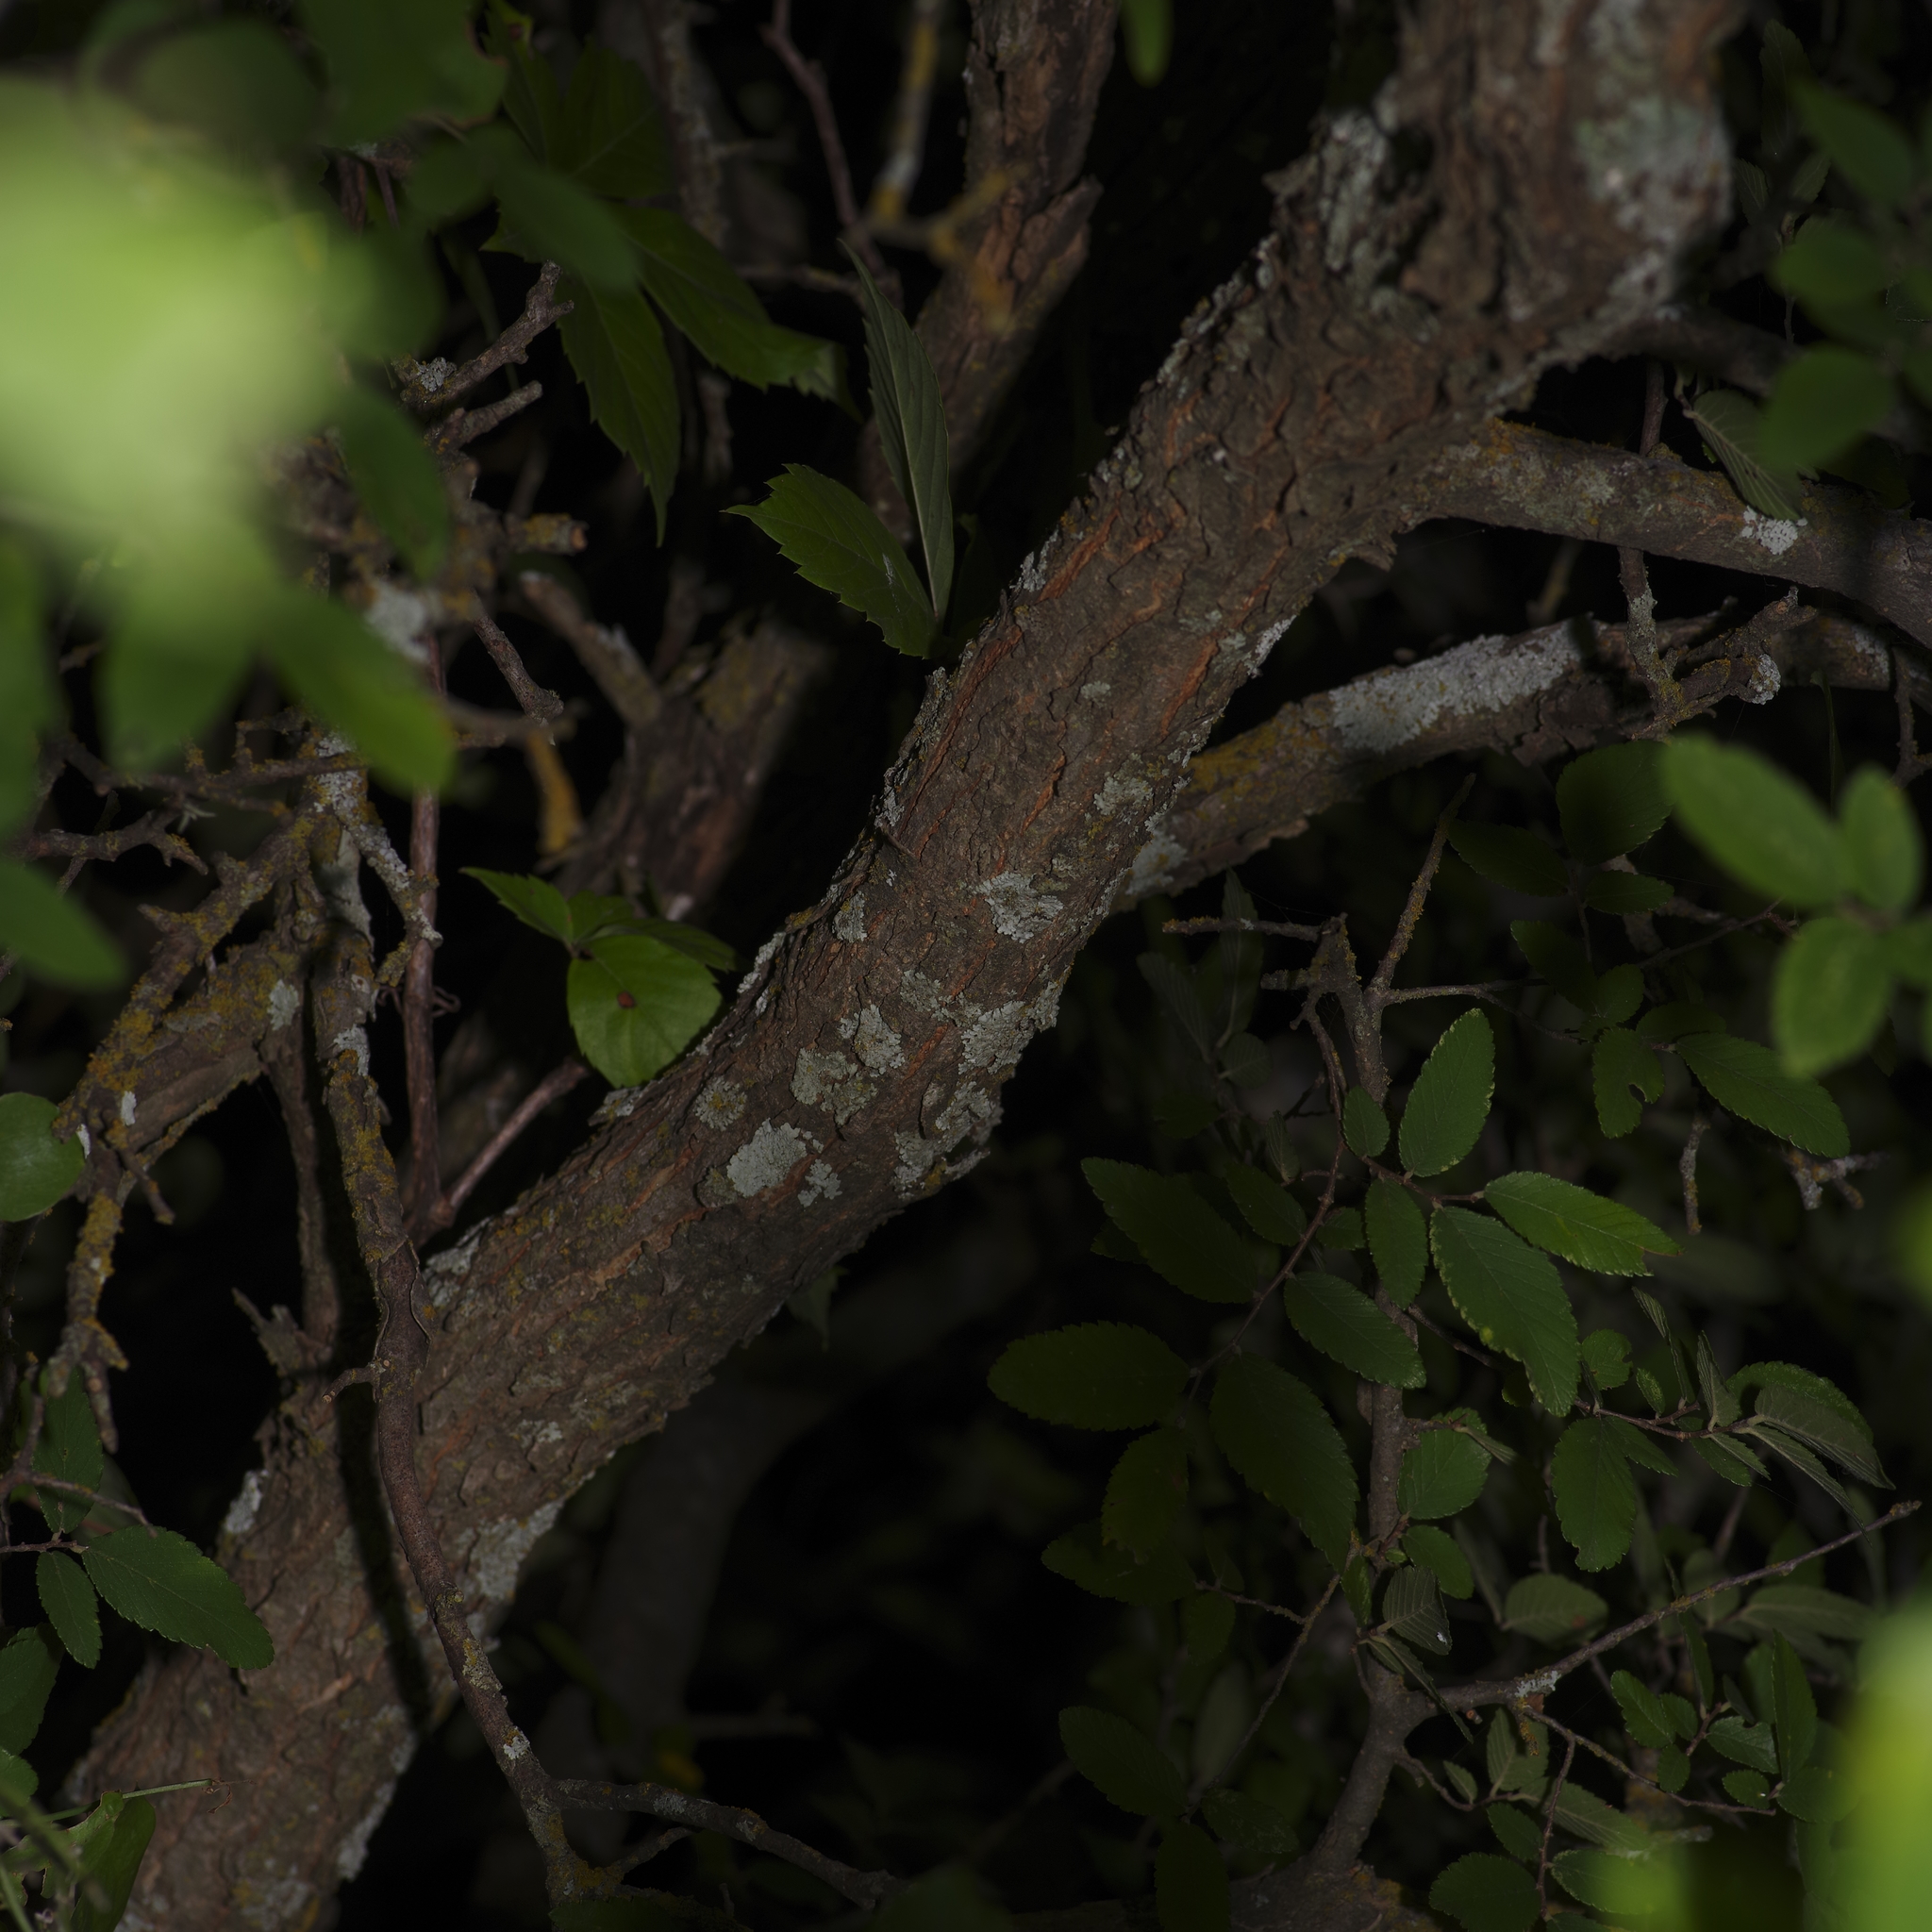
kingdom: Plantae
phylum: Tracheophyta
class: Magnoliopsida
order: Rosales
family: Ulmaceae
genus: Ulmus
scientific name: Ulmus crassifolia
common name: Basket elm
